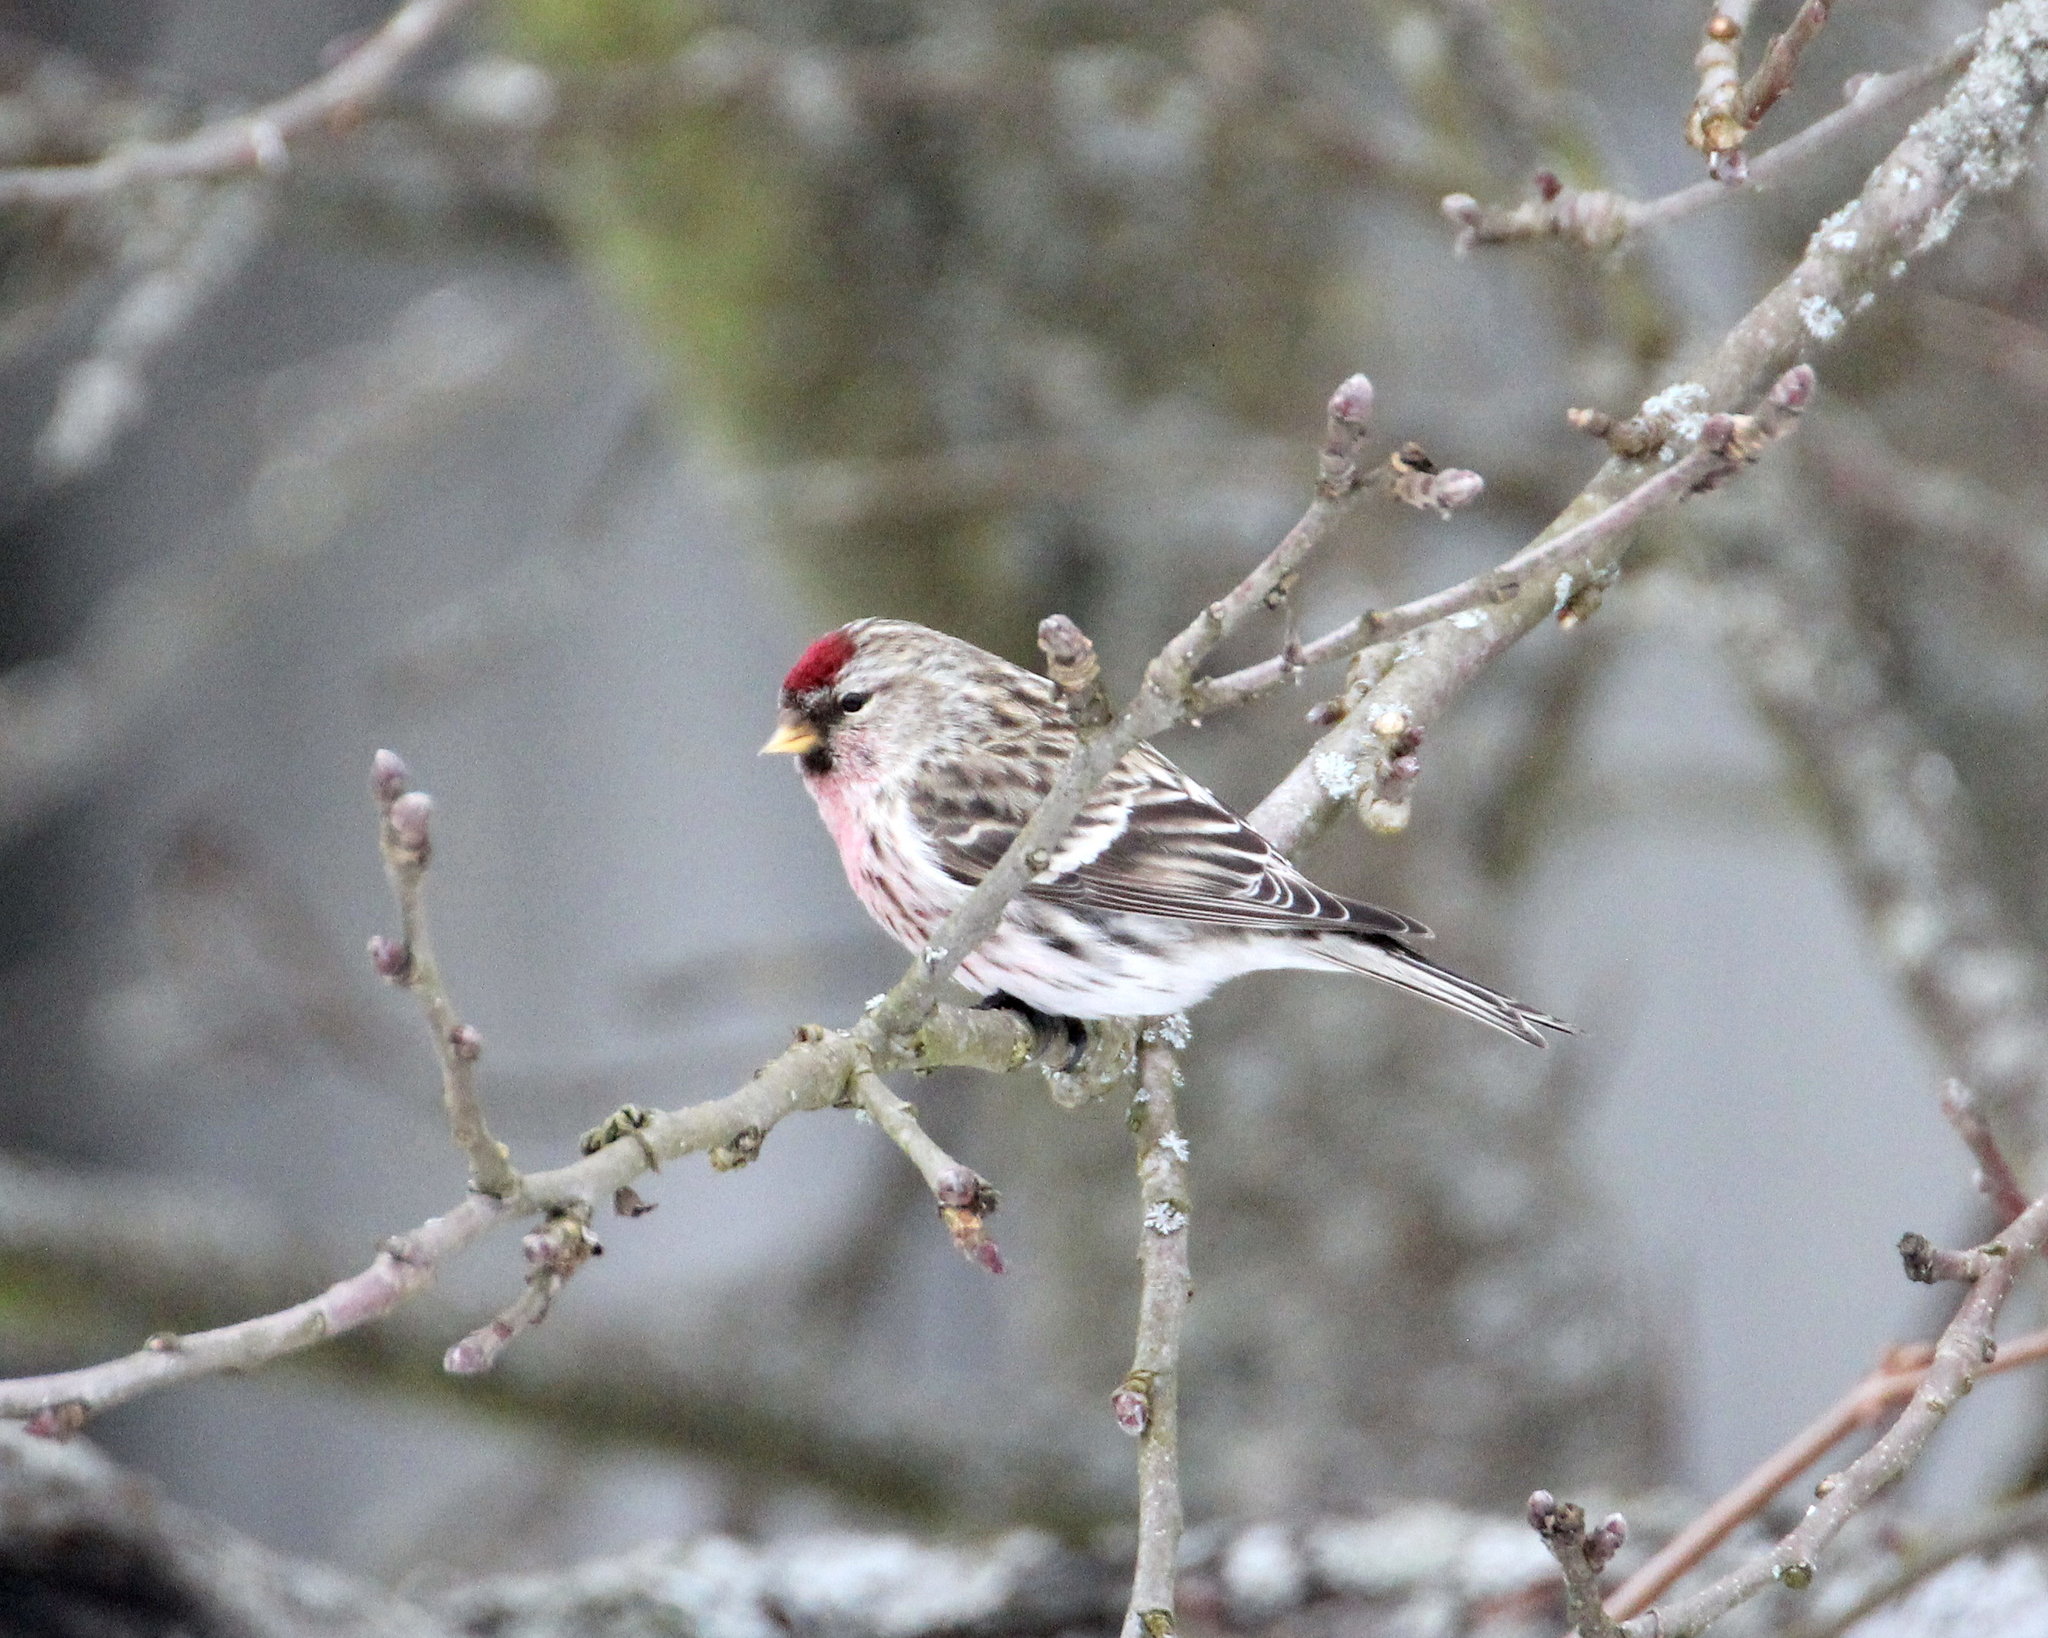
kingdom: Animalia
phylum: Chordata
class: Aves
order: Passeriformes
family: Fringillidae
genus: Acanthis
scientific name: Acanthis flammea
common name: Common redpoll
